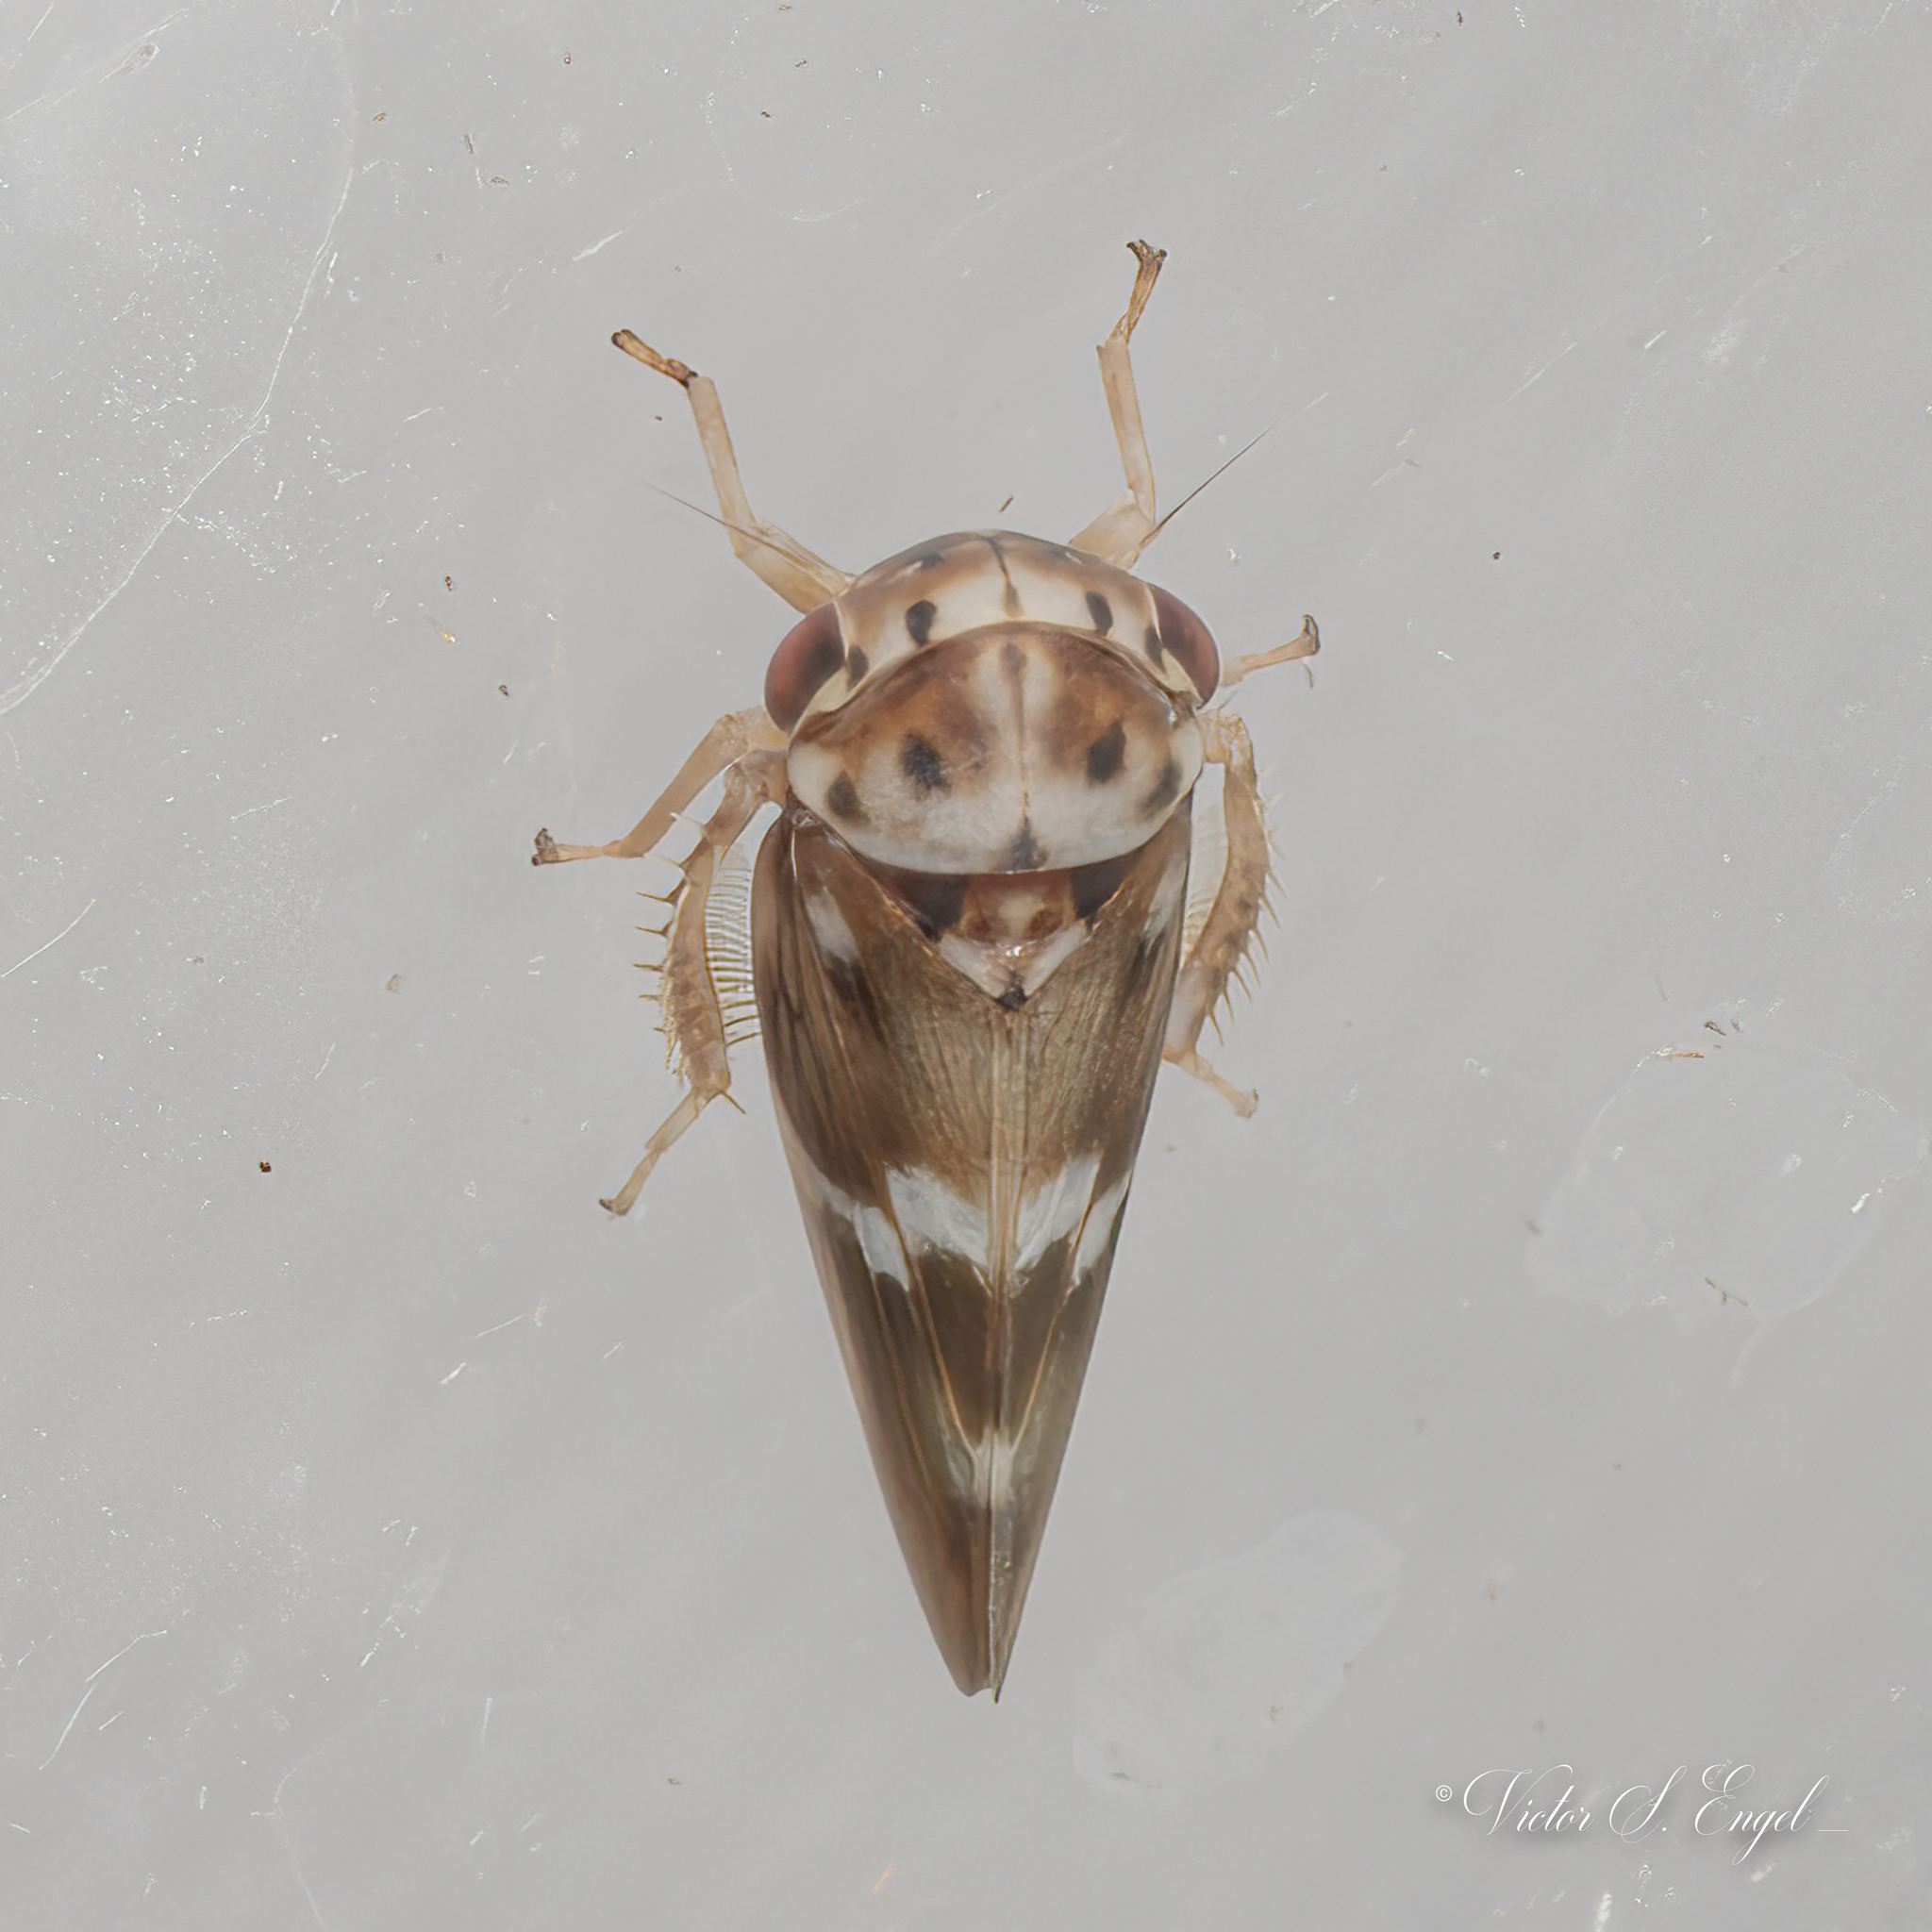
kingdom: Animalia
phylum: Arthropoda
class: Insecta
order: Hemiptera
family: Cicadellidae
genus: Agalliopsis
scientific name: Agalliopsis cervina
